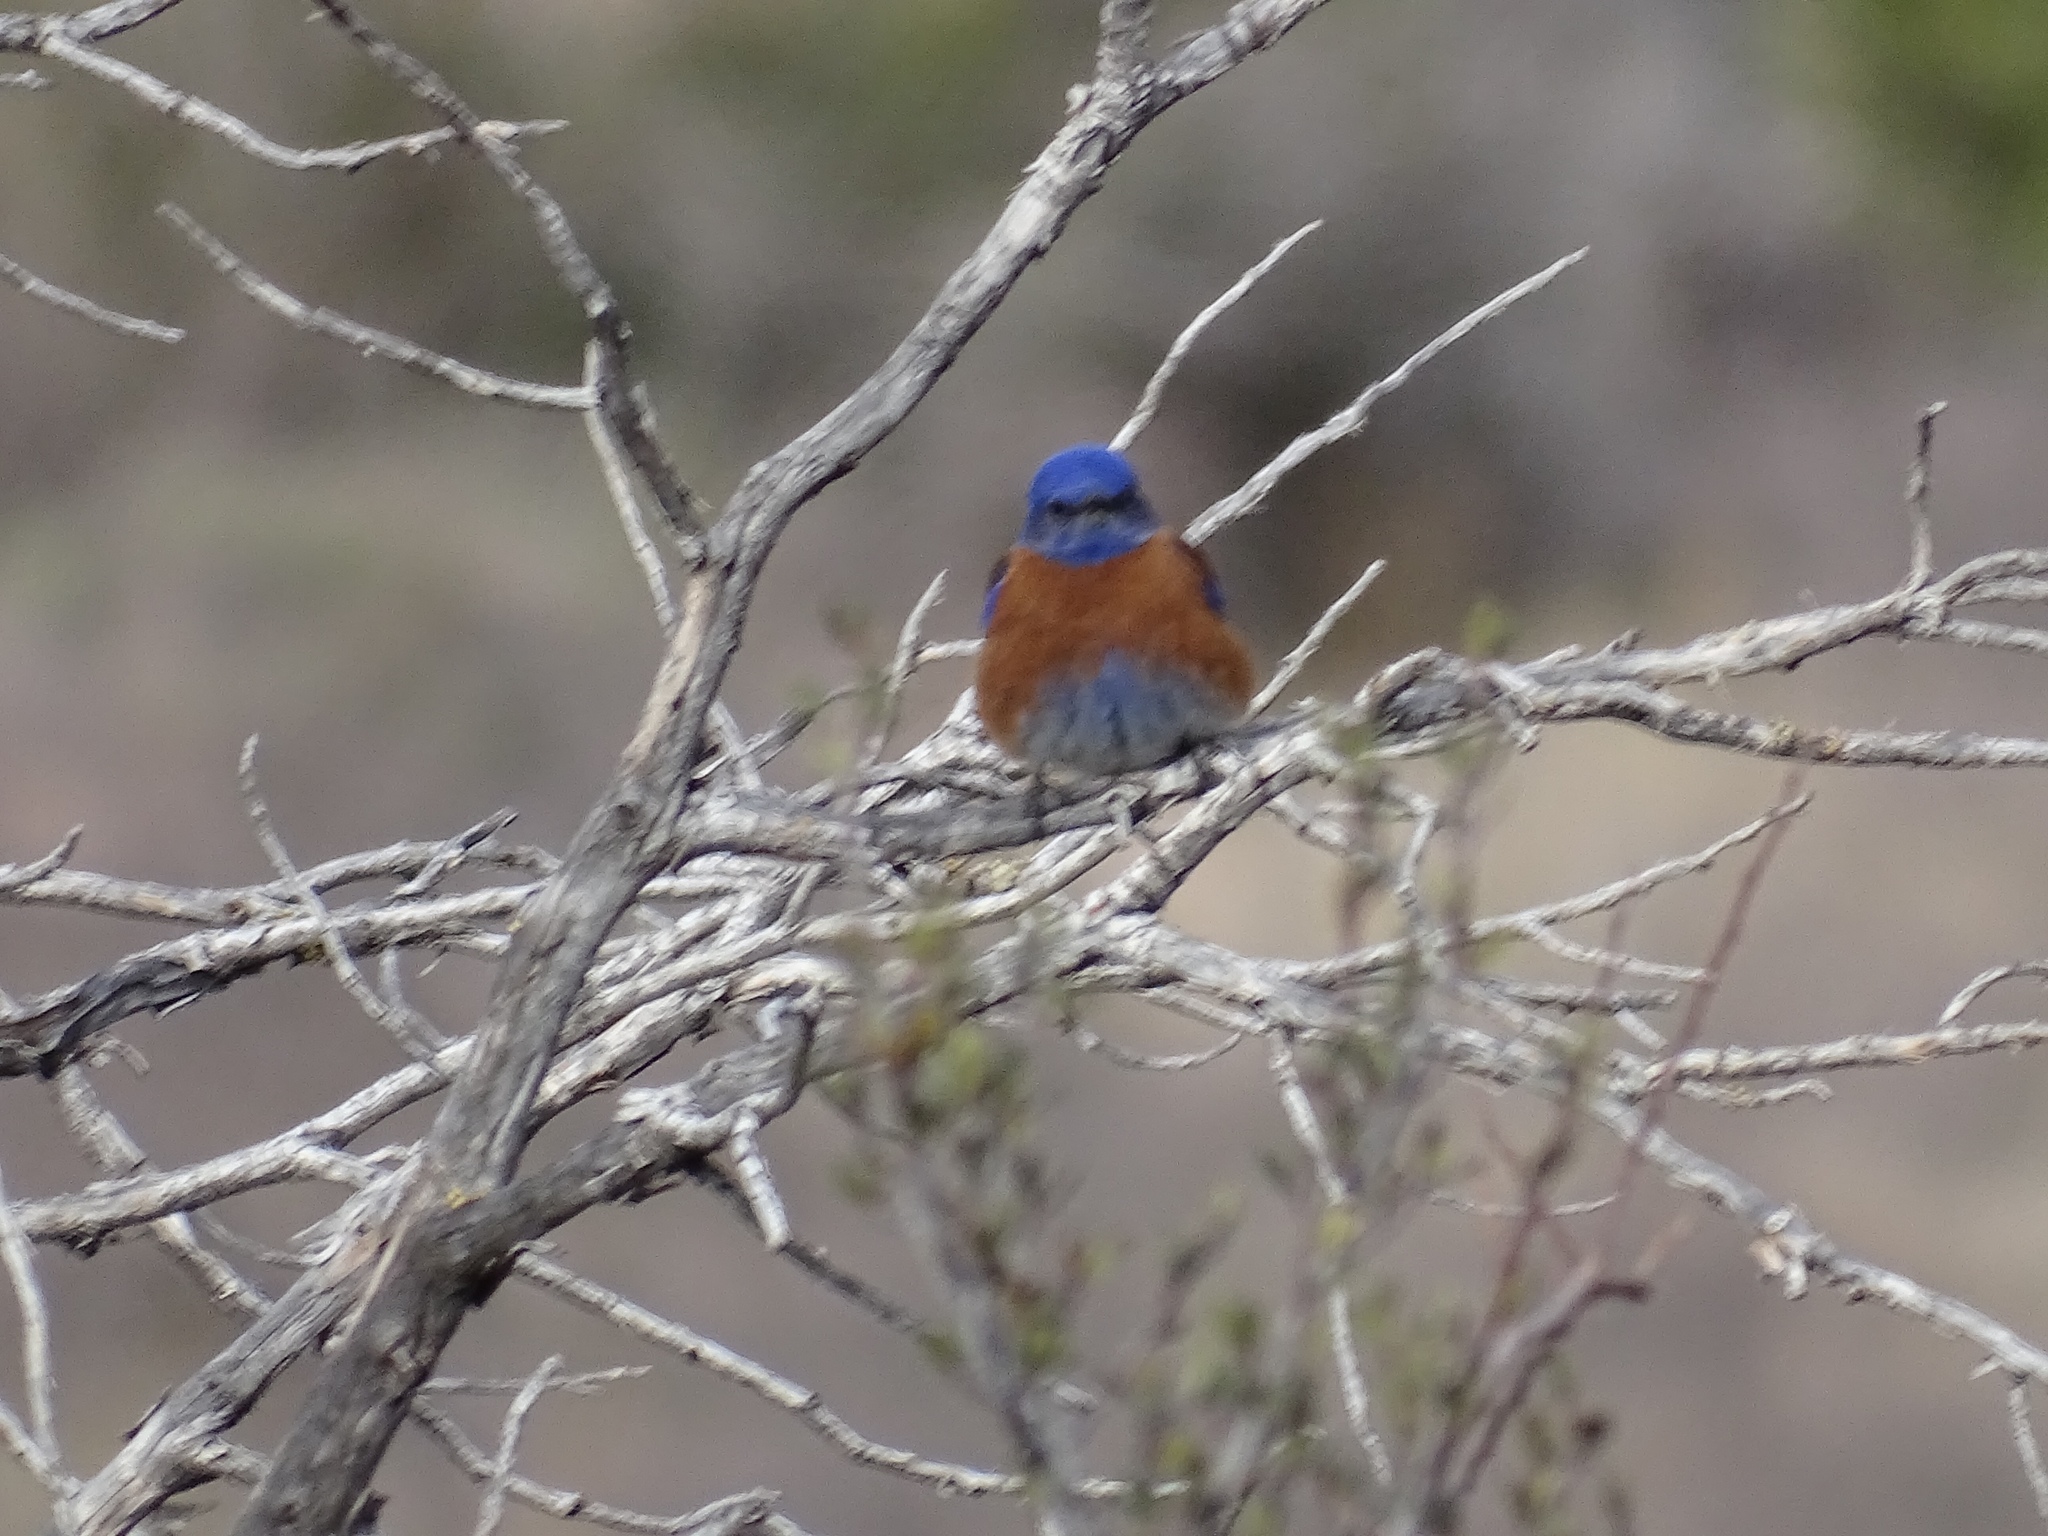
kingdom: Animalia
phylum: Chordata
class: Aves
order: Passeriformes
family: Turdidae
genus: Sialia
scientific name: Sialia mexicana
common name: Western bluebird
